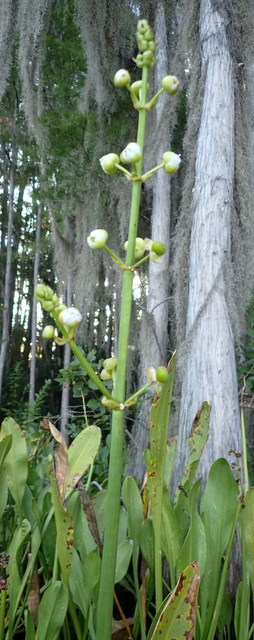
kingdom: Plantae
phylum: Tracheophyta
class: Liliopsida
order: Alismatales
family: Alismataceae
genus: Sagittaria
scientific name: Sagittaria lancifolia
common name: Lance-leaf arrowhead
